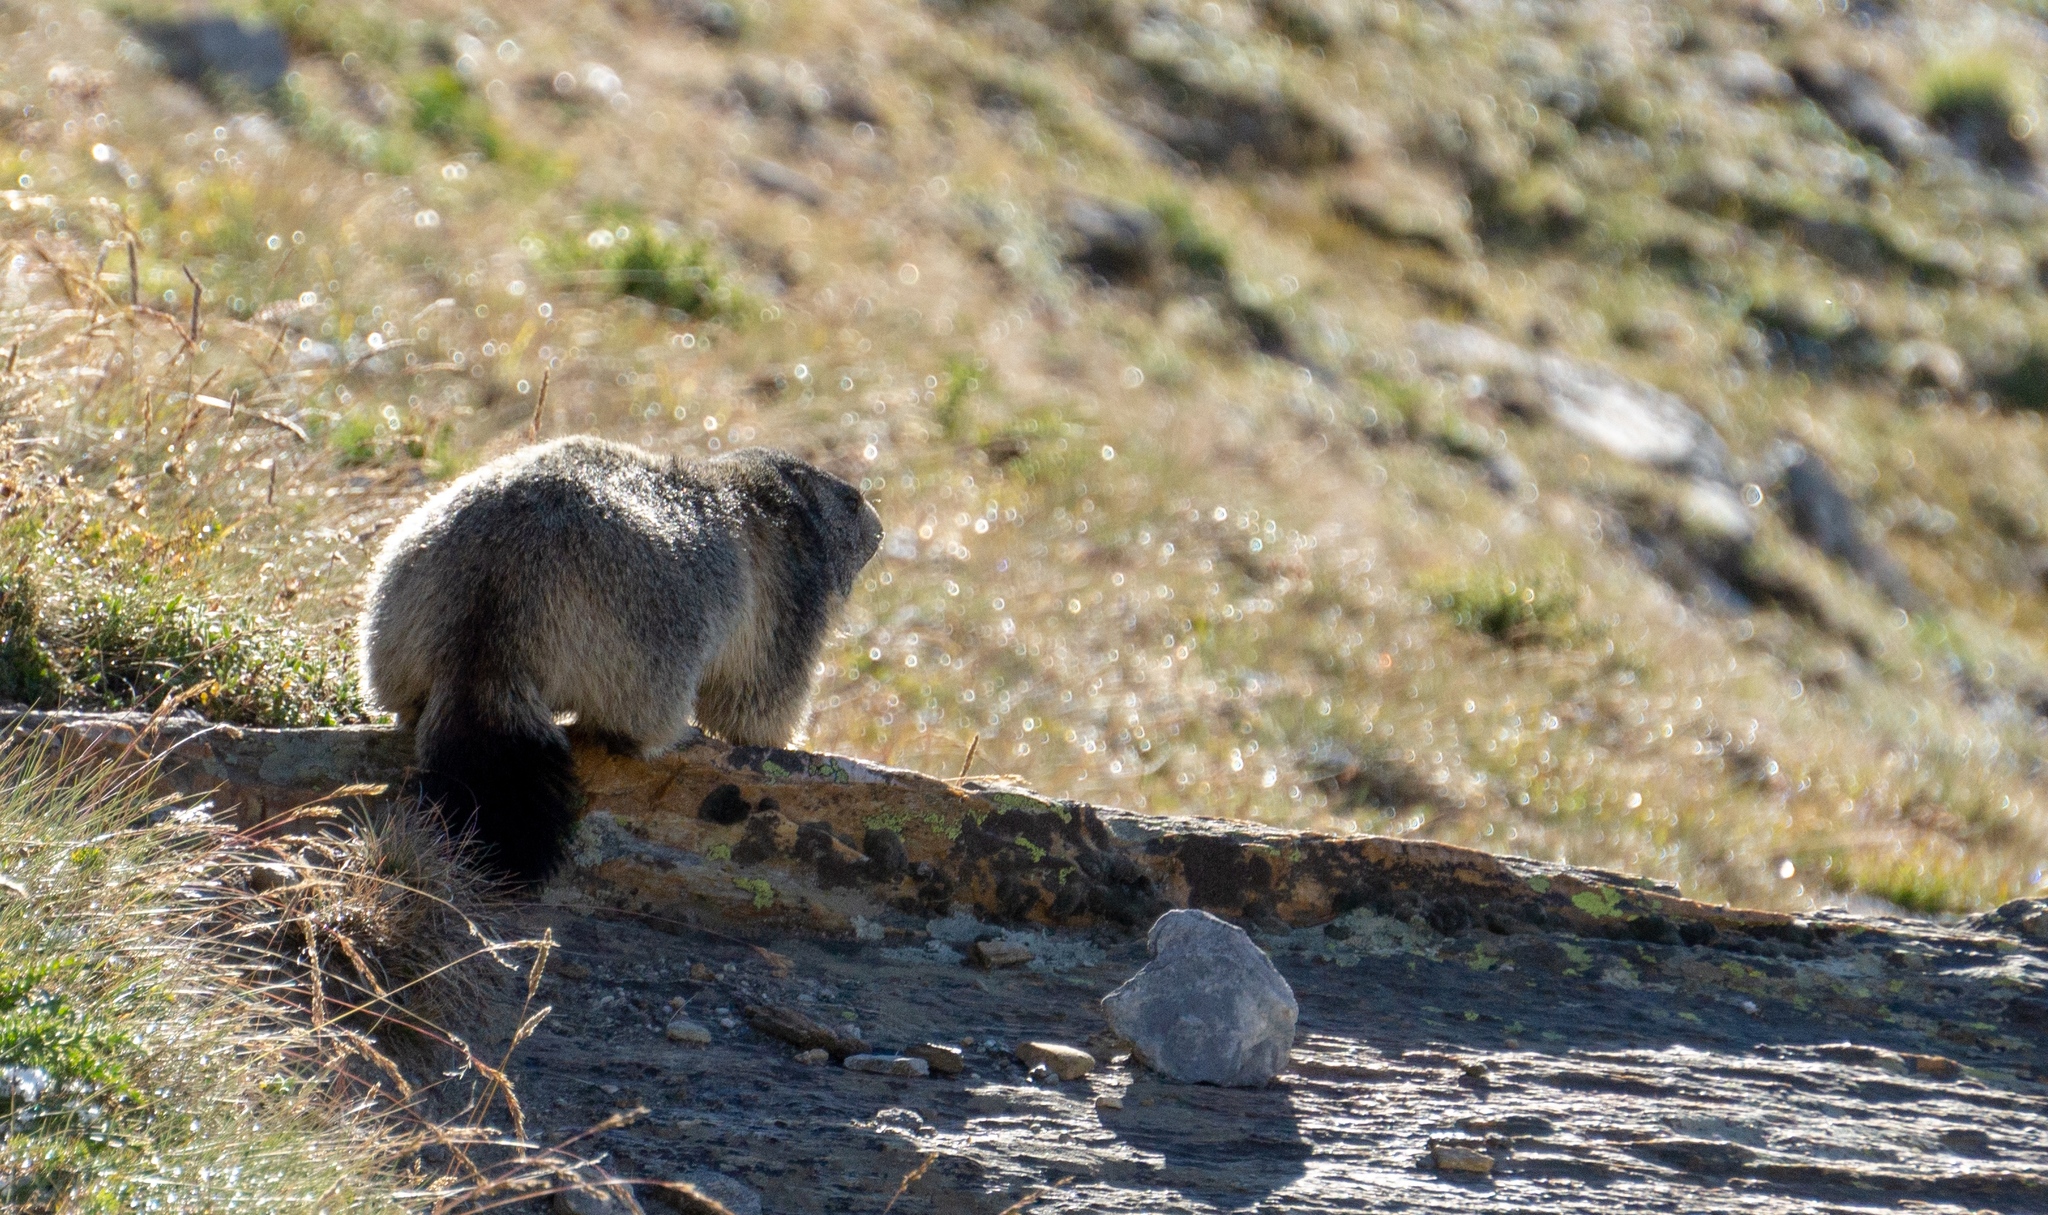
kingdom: Animalia
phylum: Chordata
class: Mammalia
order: Rodentia
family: Sciuridae
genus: Marmota
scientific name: Marmota marmota
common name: Alpine marmot
